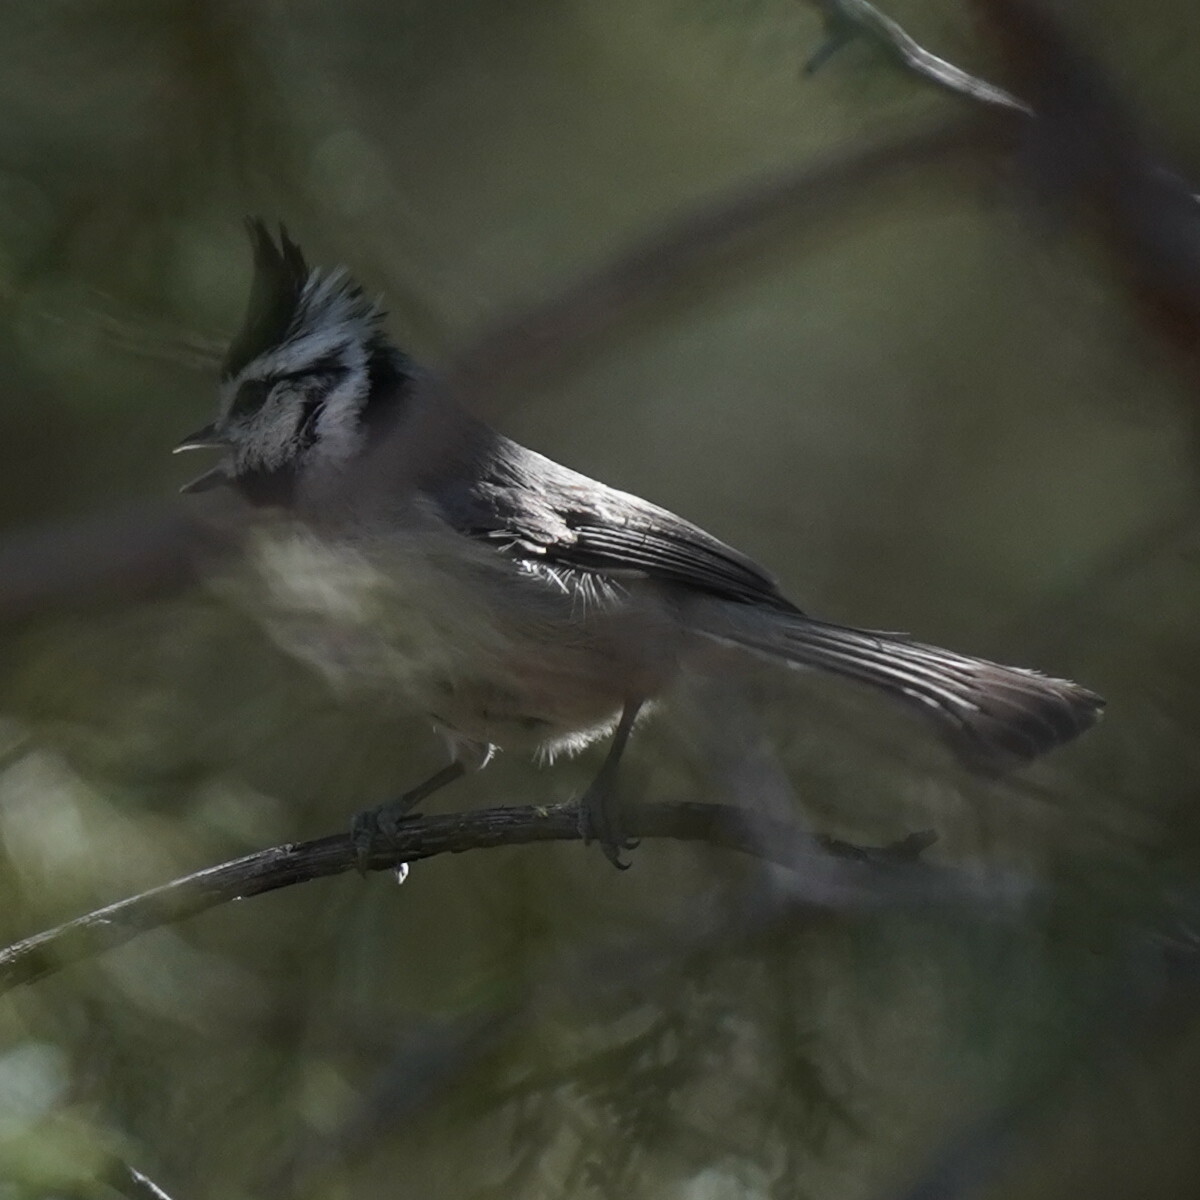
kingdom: Animalia
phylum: Chordata
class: Aves
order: Passeriformes
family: Paridae
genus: Baeolophus
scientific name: Baeolophus wollweberi
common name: Bridled titmouse
